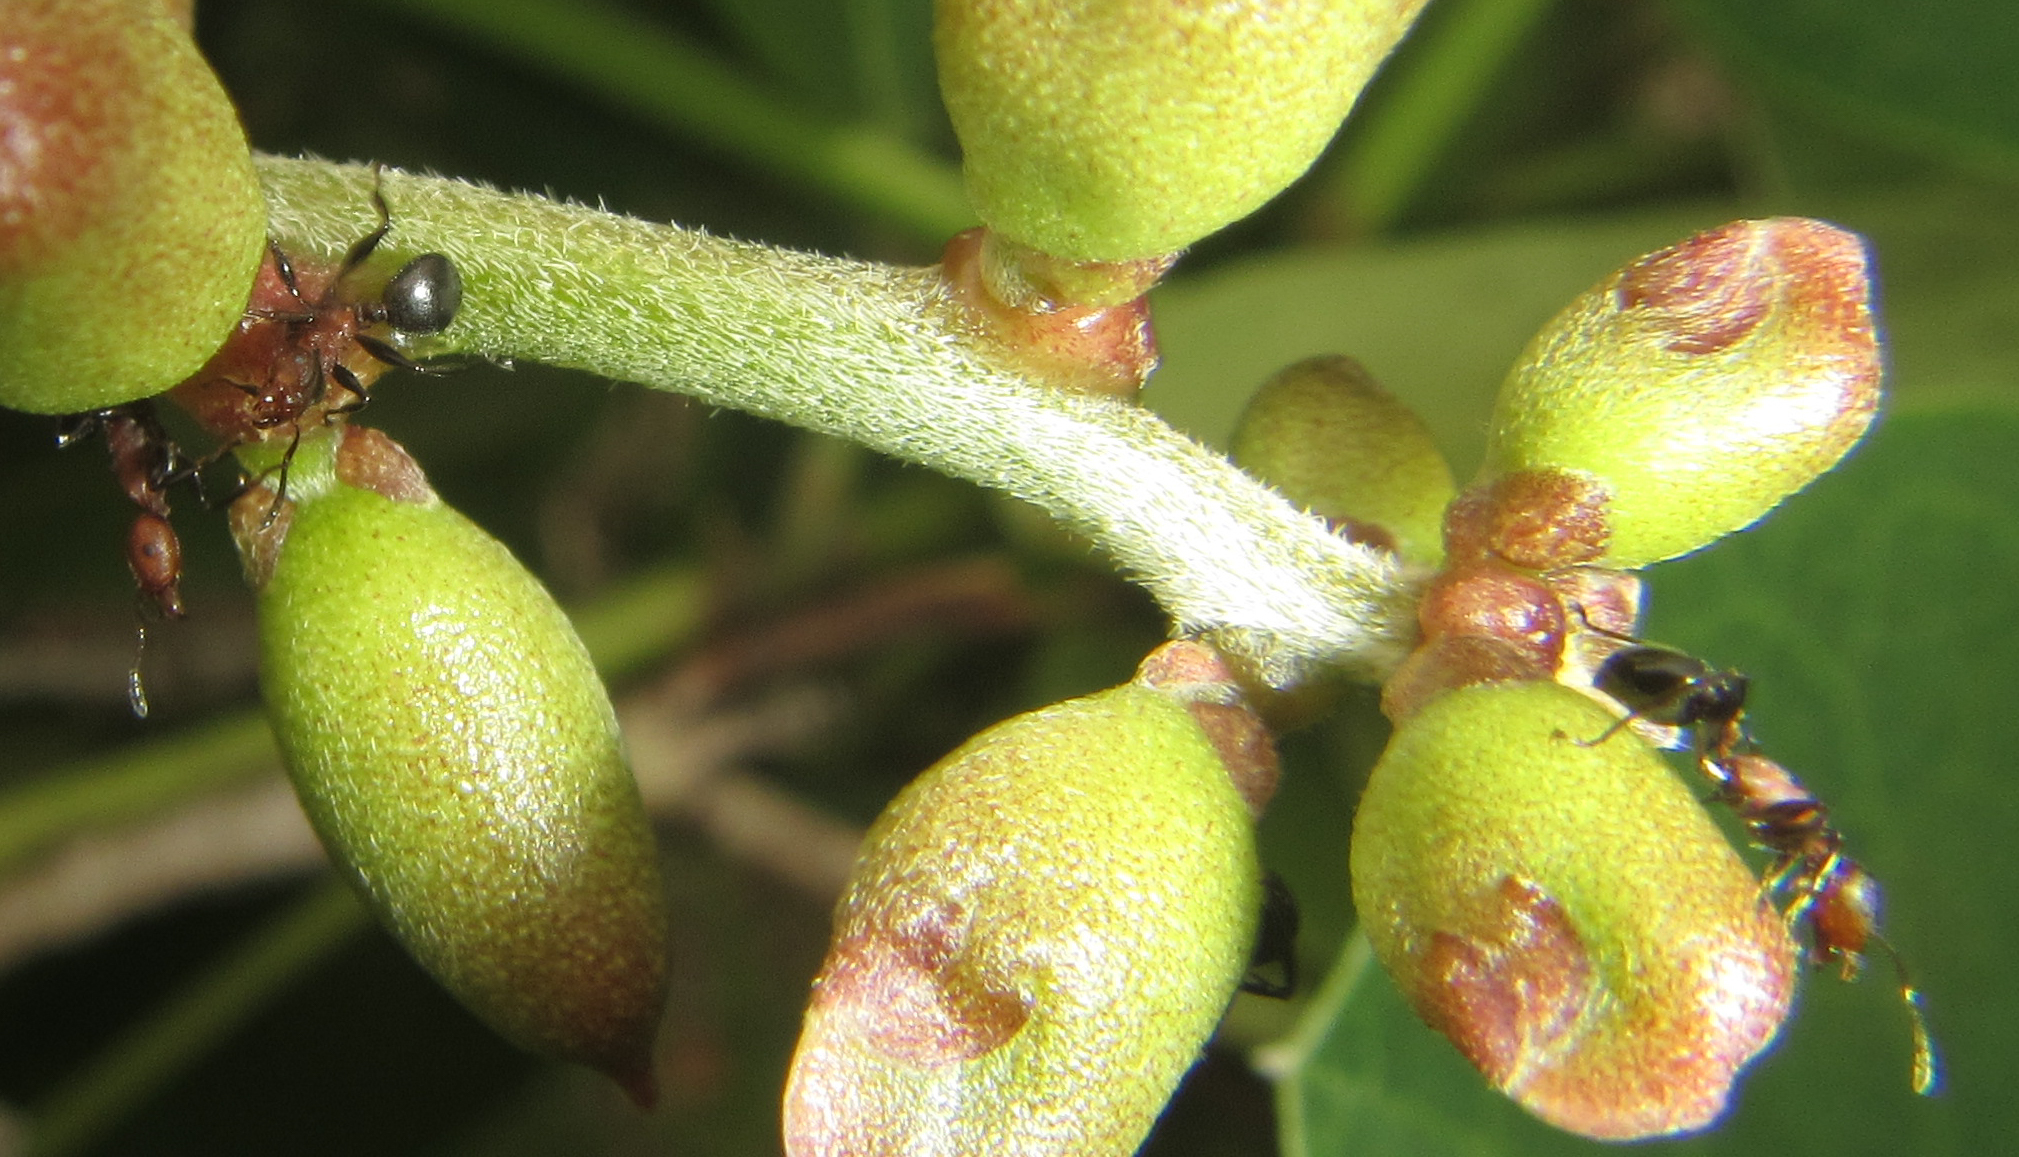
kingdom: Animalia
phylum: Arthropoda
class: Insecta
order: Hymenoptera
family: Formicidae
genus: Atopomyrmex
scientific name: Atopomyrmex mocquerysi
